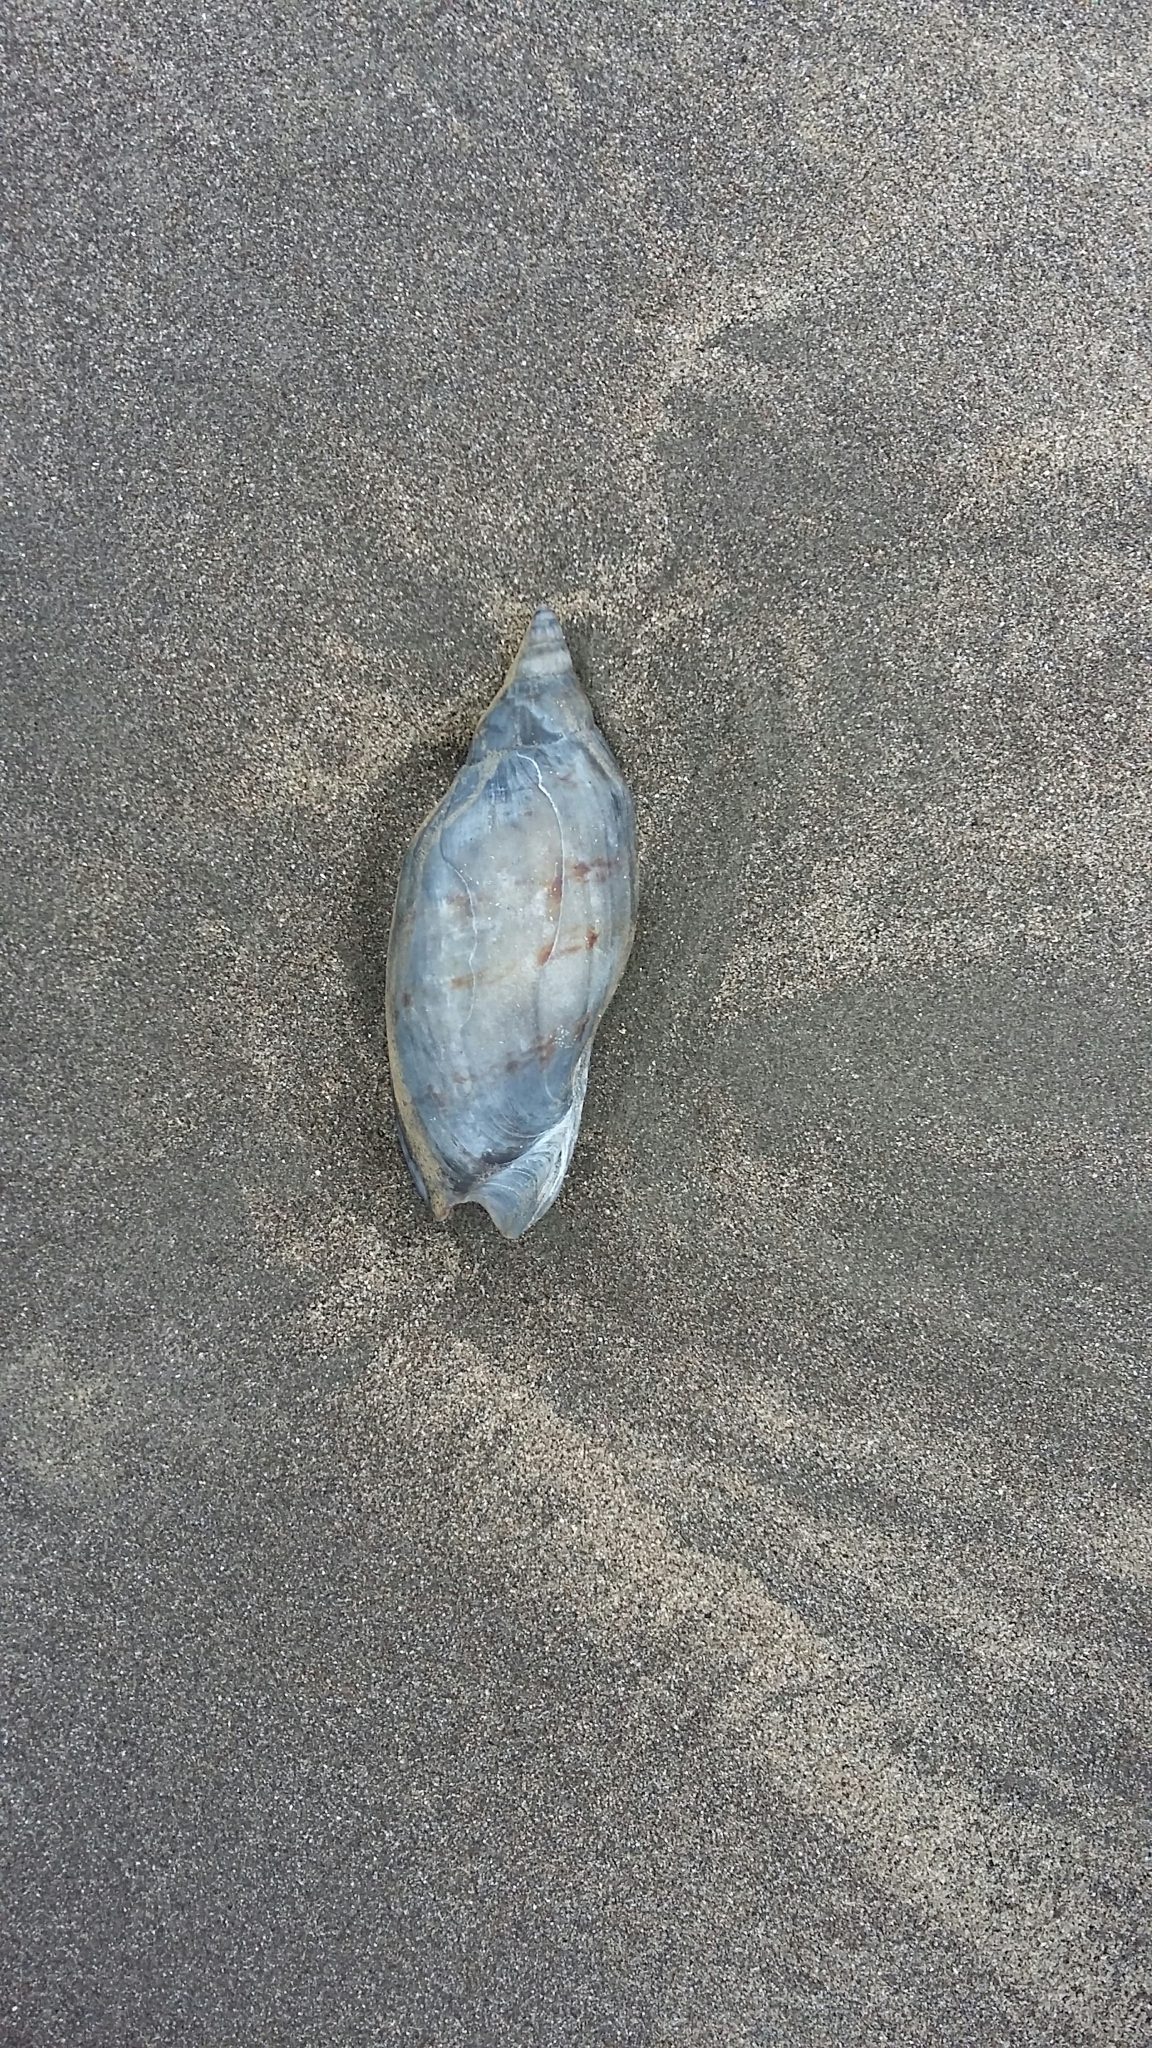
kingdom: Animalia
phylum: Mollusca
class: Gastropoda
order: Neogastropoda
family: Volutidae
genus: Alcithoe
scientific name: Alcithoe arabica
